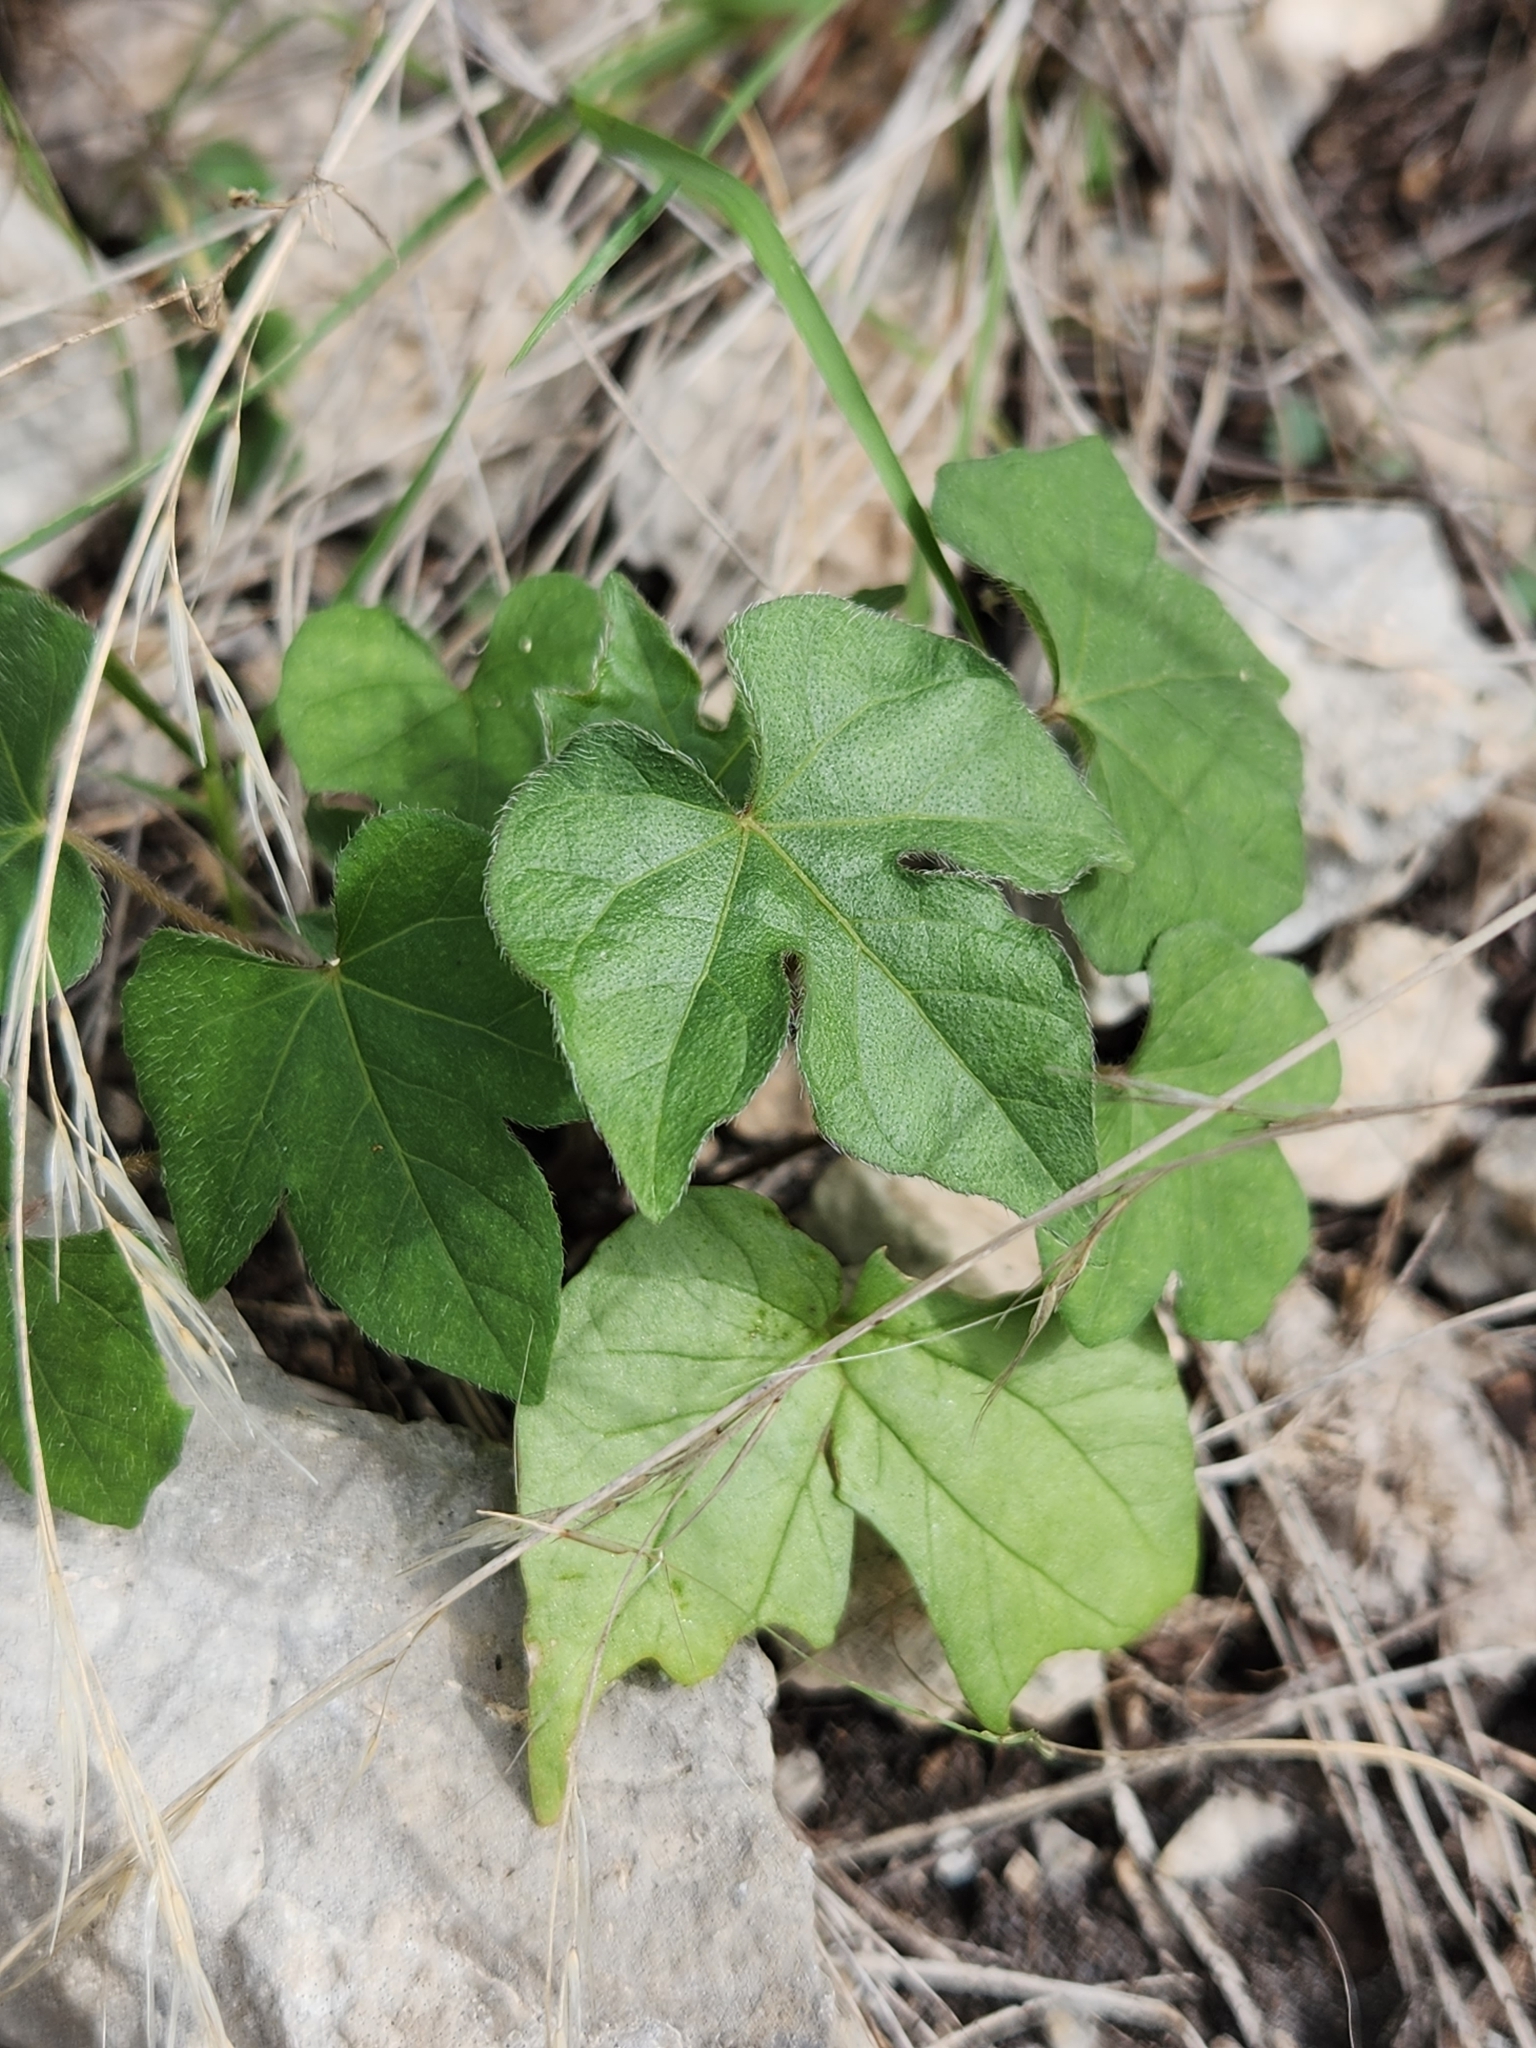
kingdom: Plantae
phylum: Tracheophyta
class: Magnoliopsida
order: Solanales
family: Convolvulaceae
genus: Ipomoea
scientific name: Ipomoea lindheimeri
